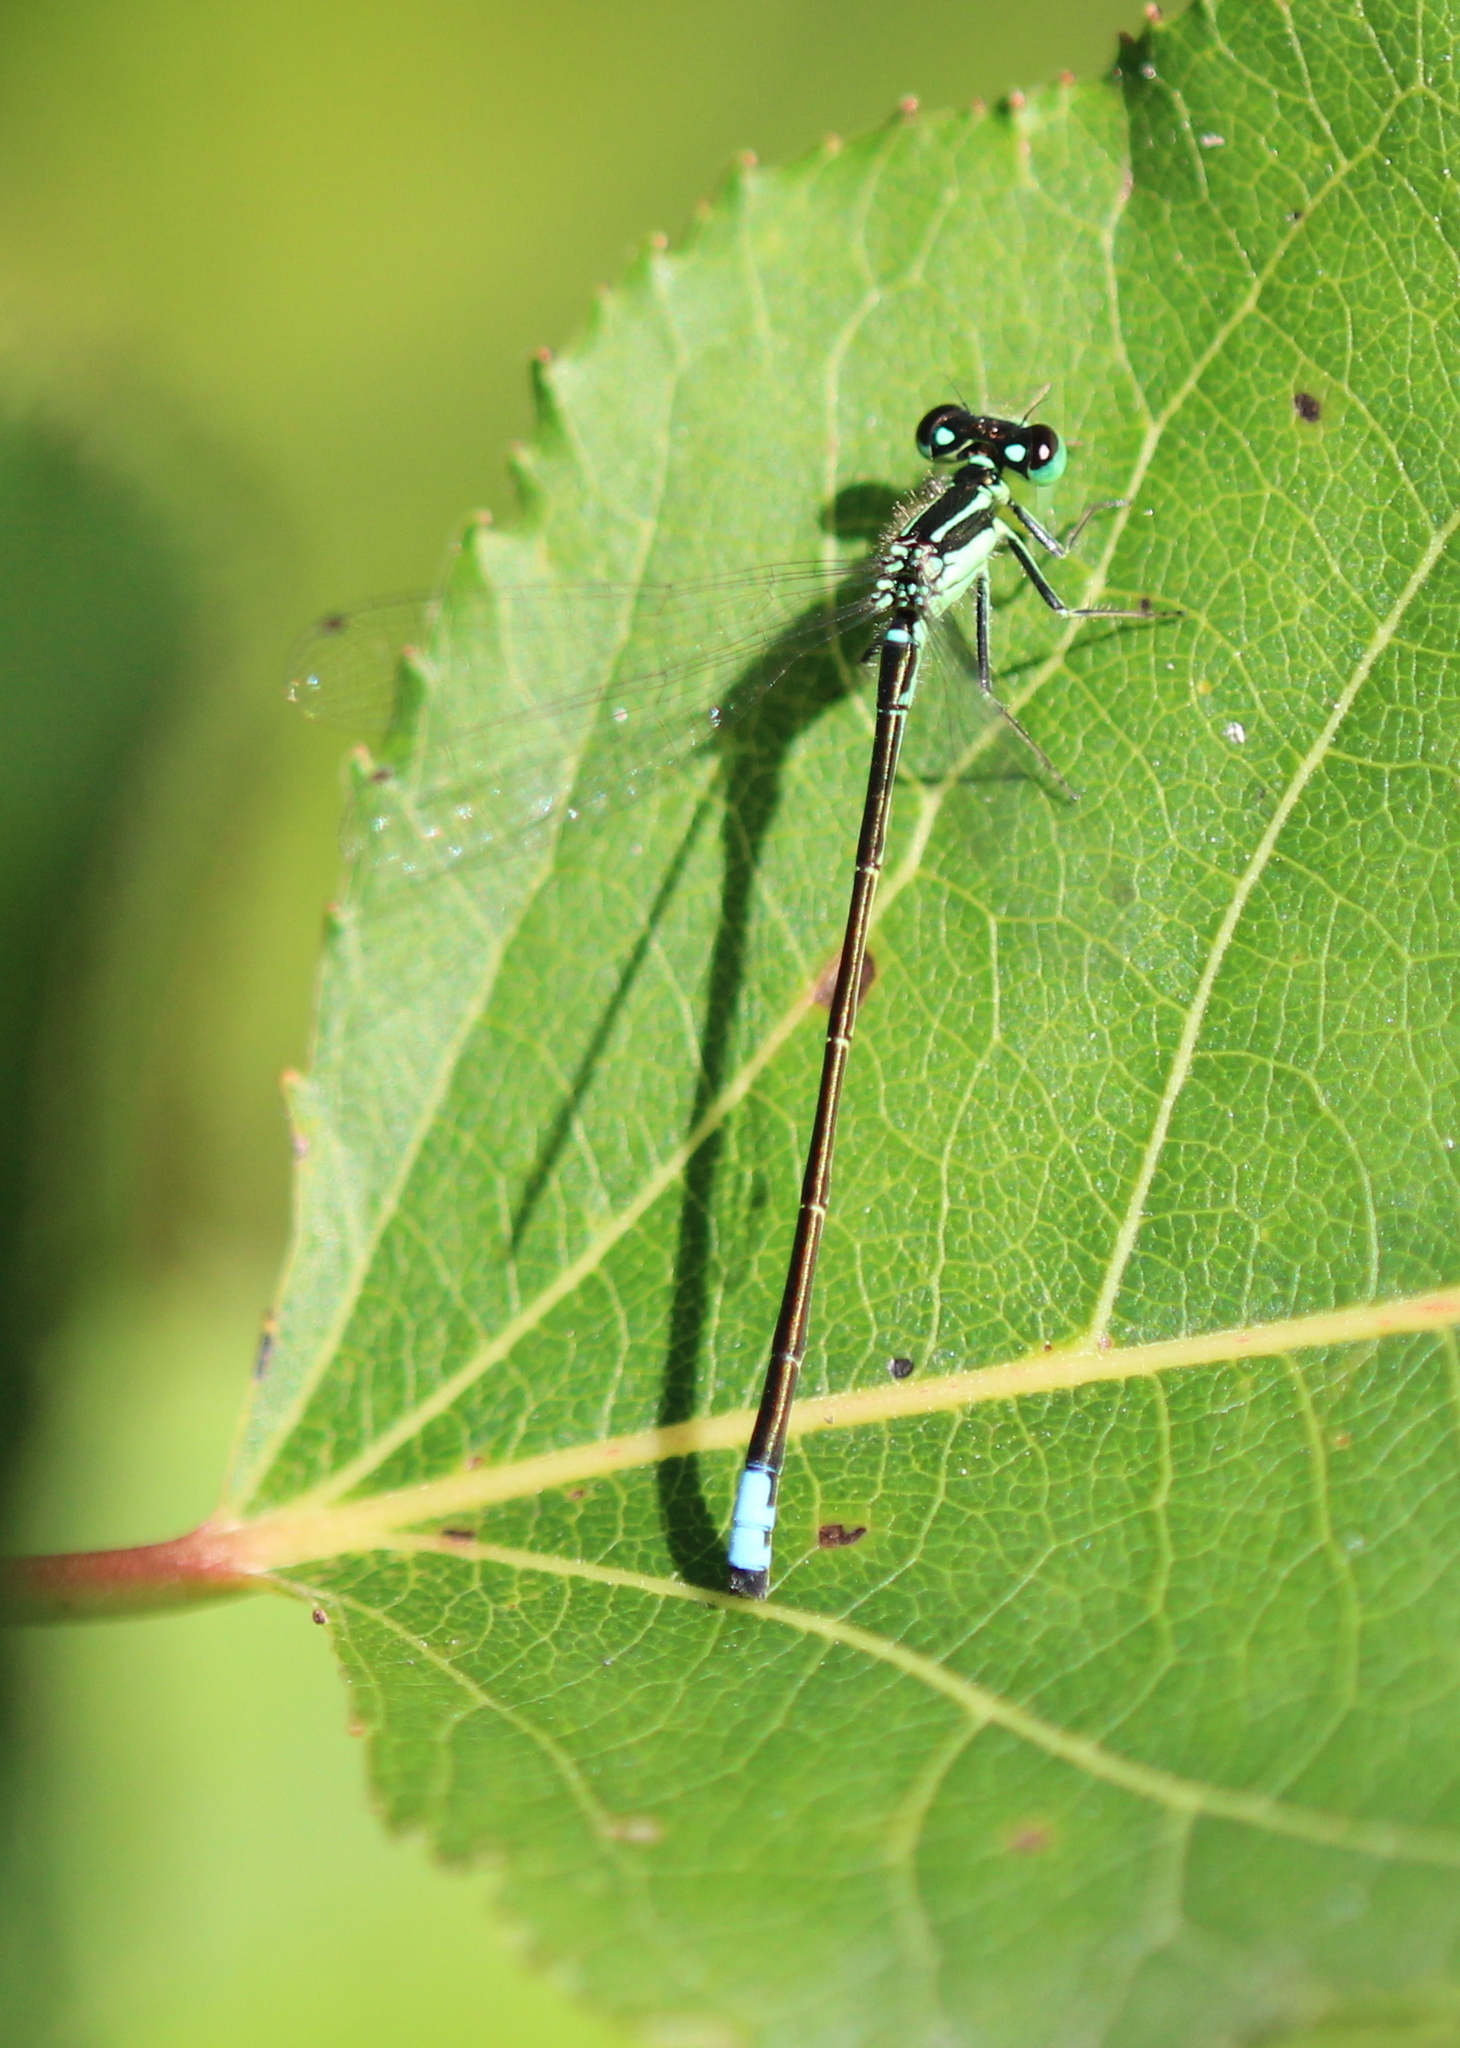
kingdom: Animalia
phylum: Arthropoda
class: Insecta
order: Odonata
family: Coenagrionidae
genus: Ischnura
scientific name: Ischnura verticalis
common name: Eastern forktail
